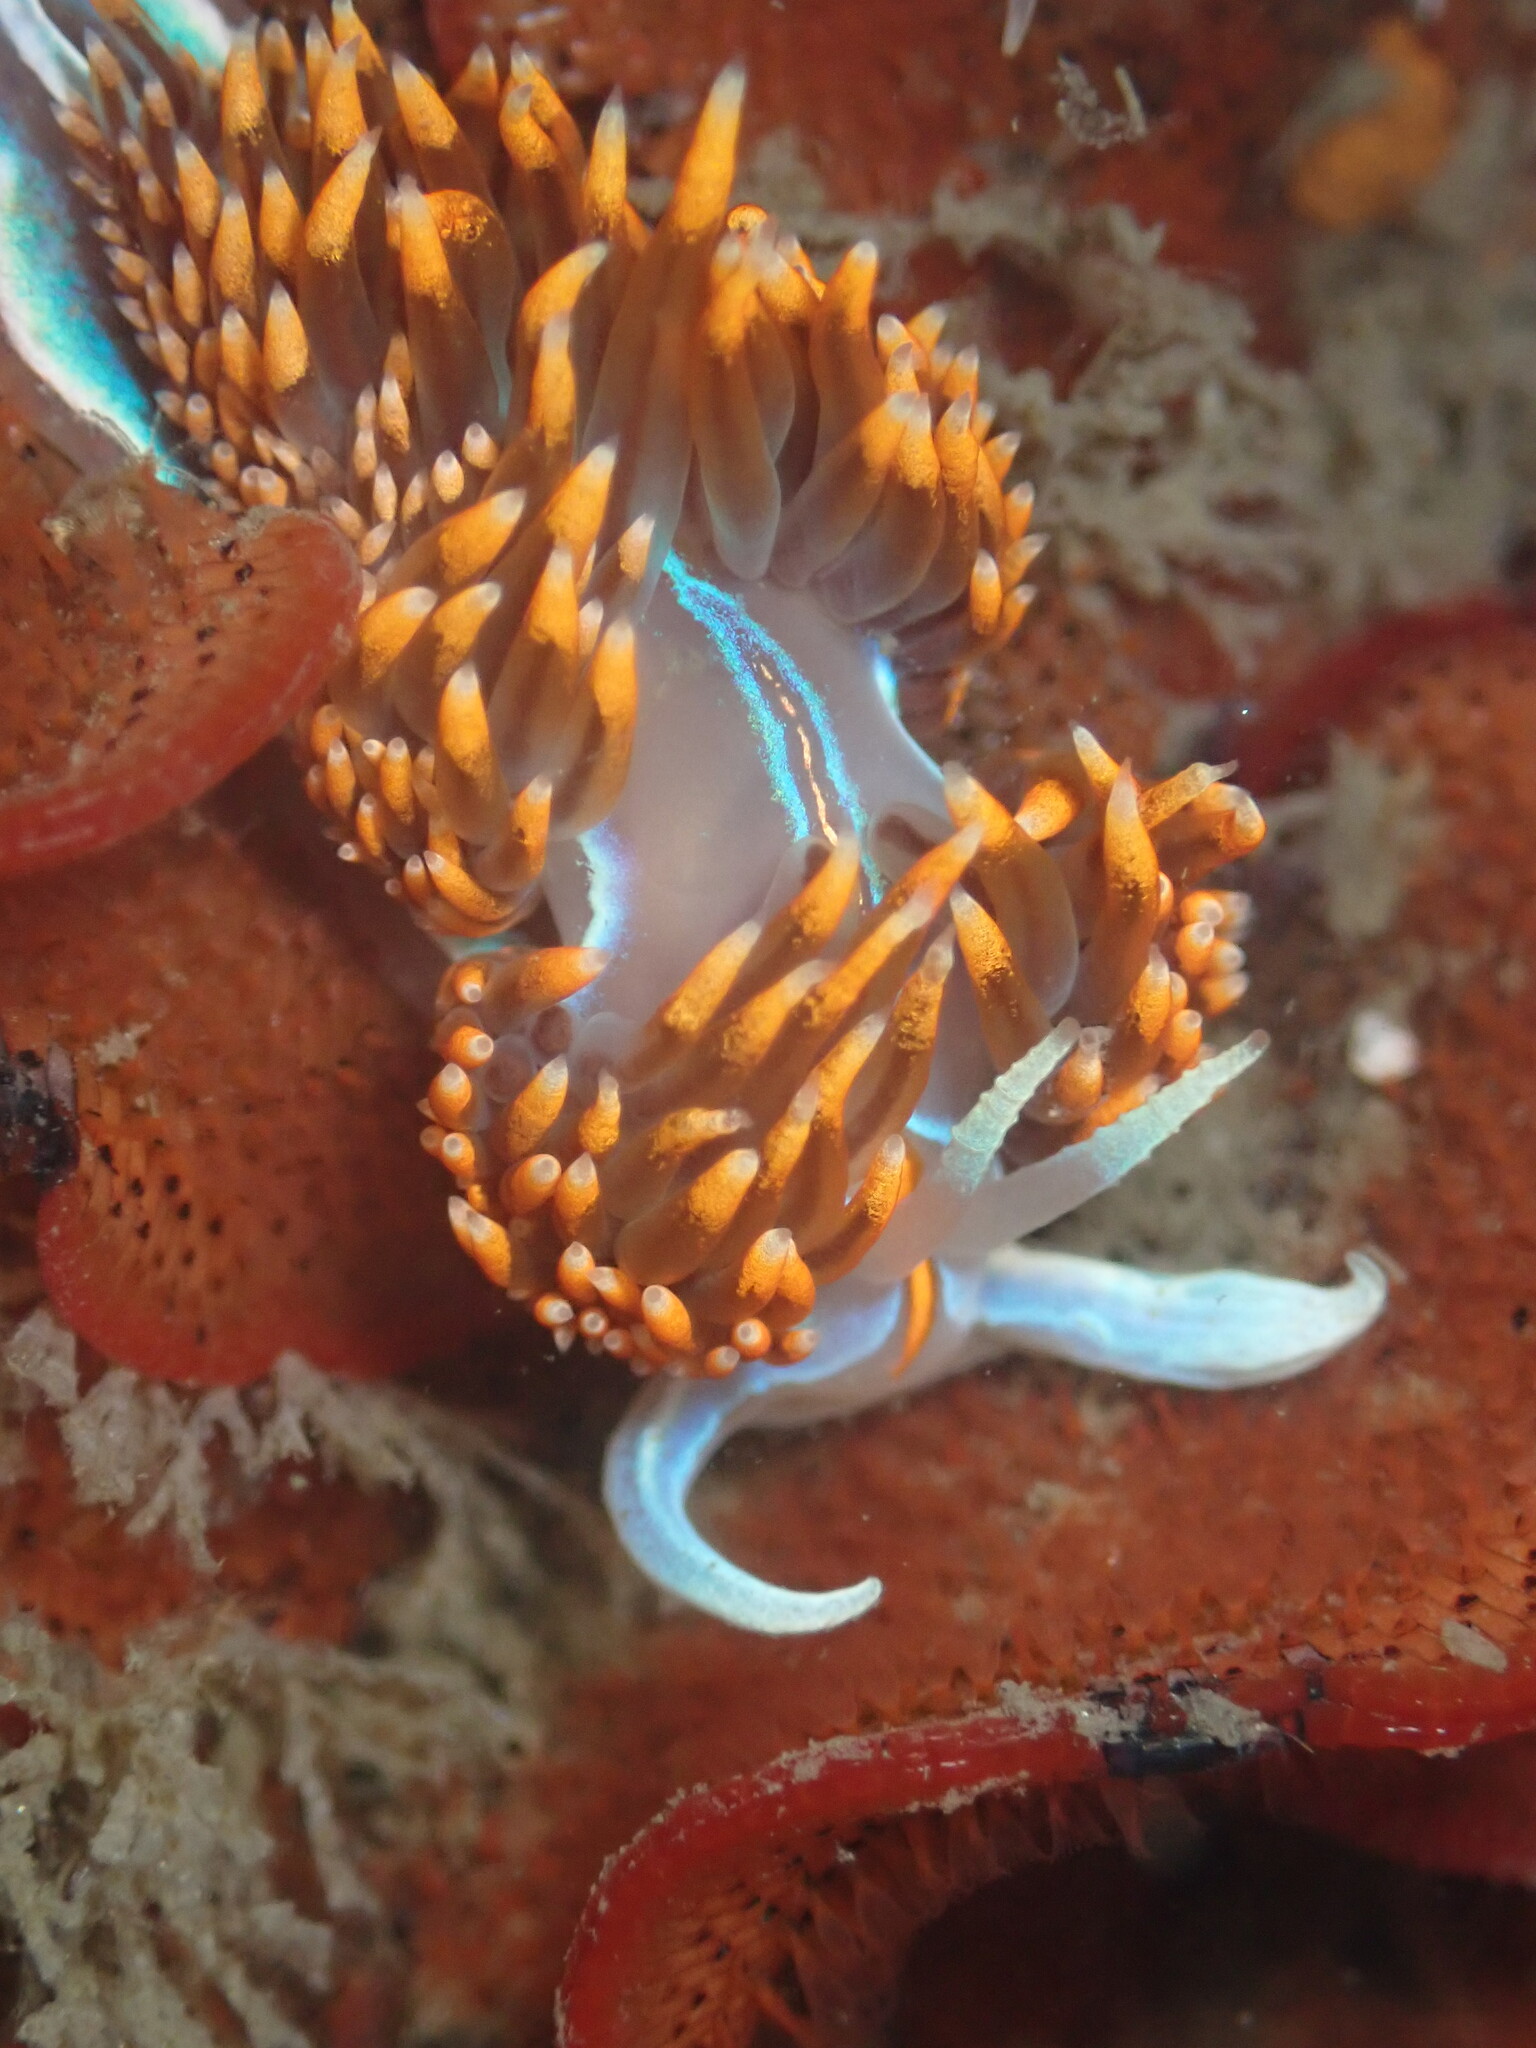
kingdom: Animalia
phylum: Mollusca
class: Gastropoda
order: Nudibranchia
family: Myrrhinidae
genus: Hermissenda
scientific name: Hermissenda opalescens
